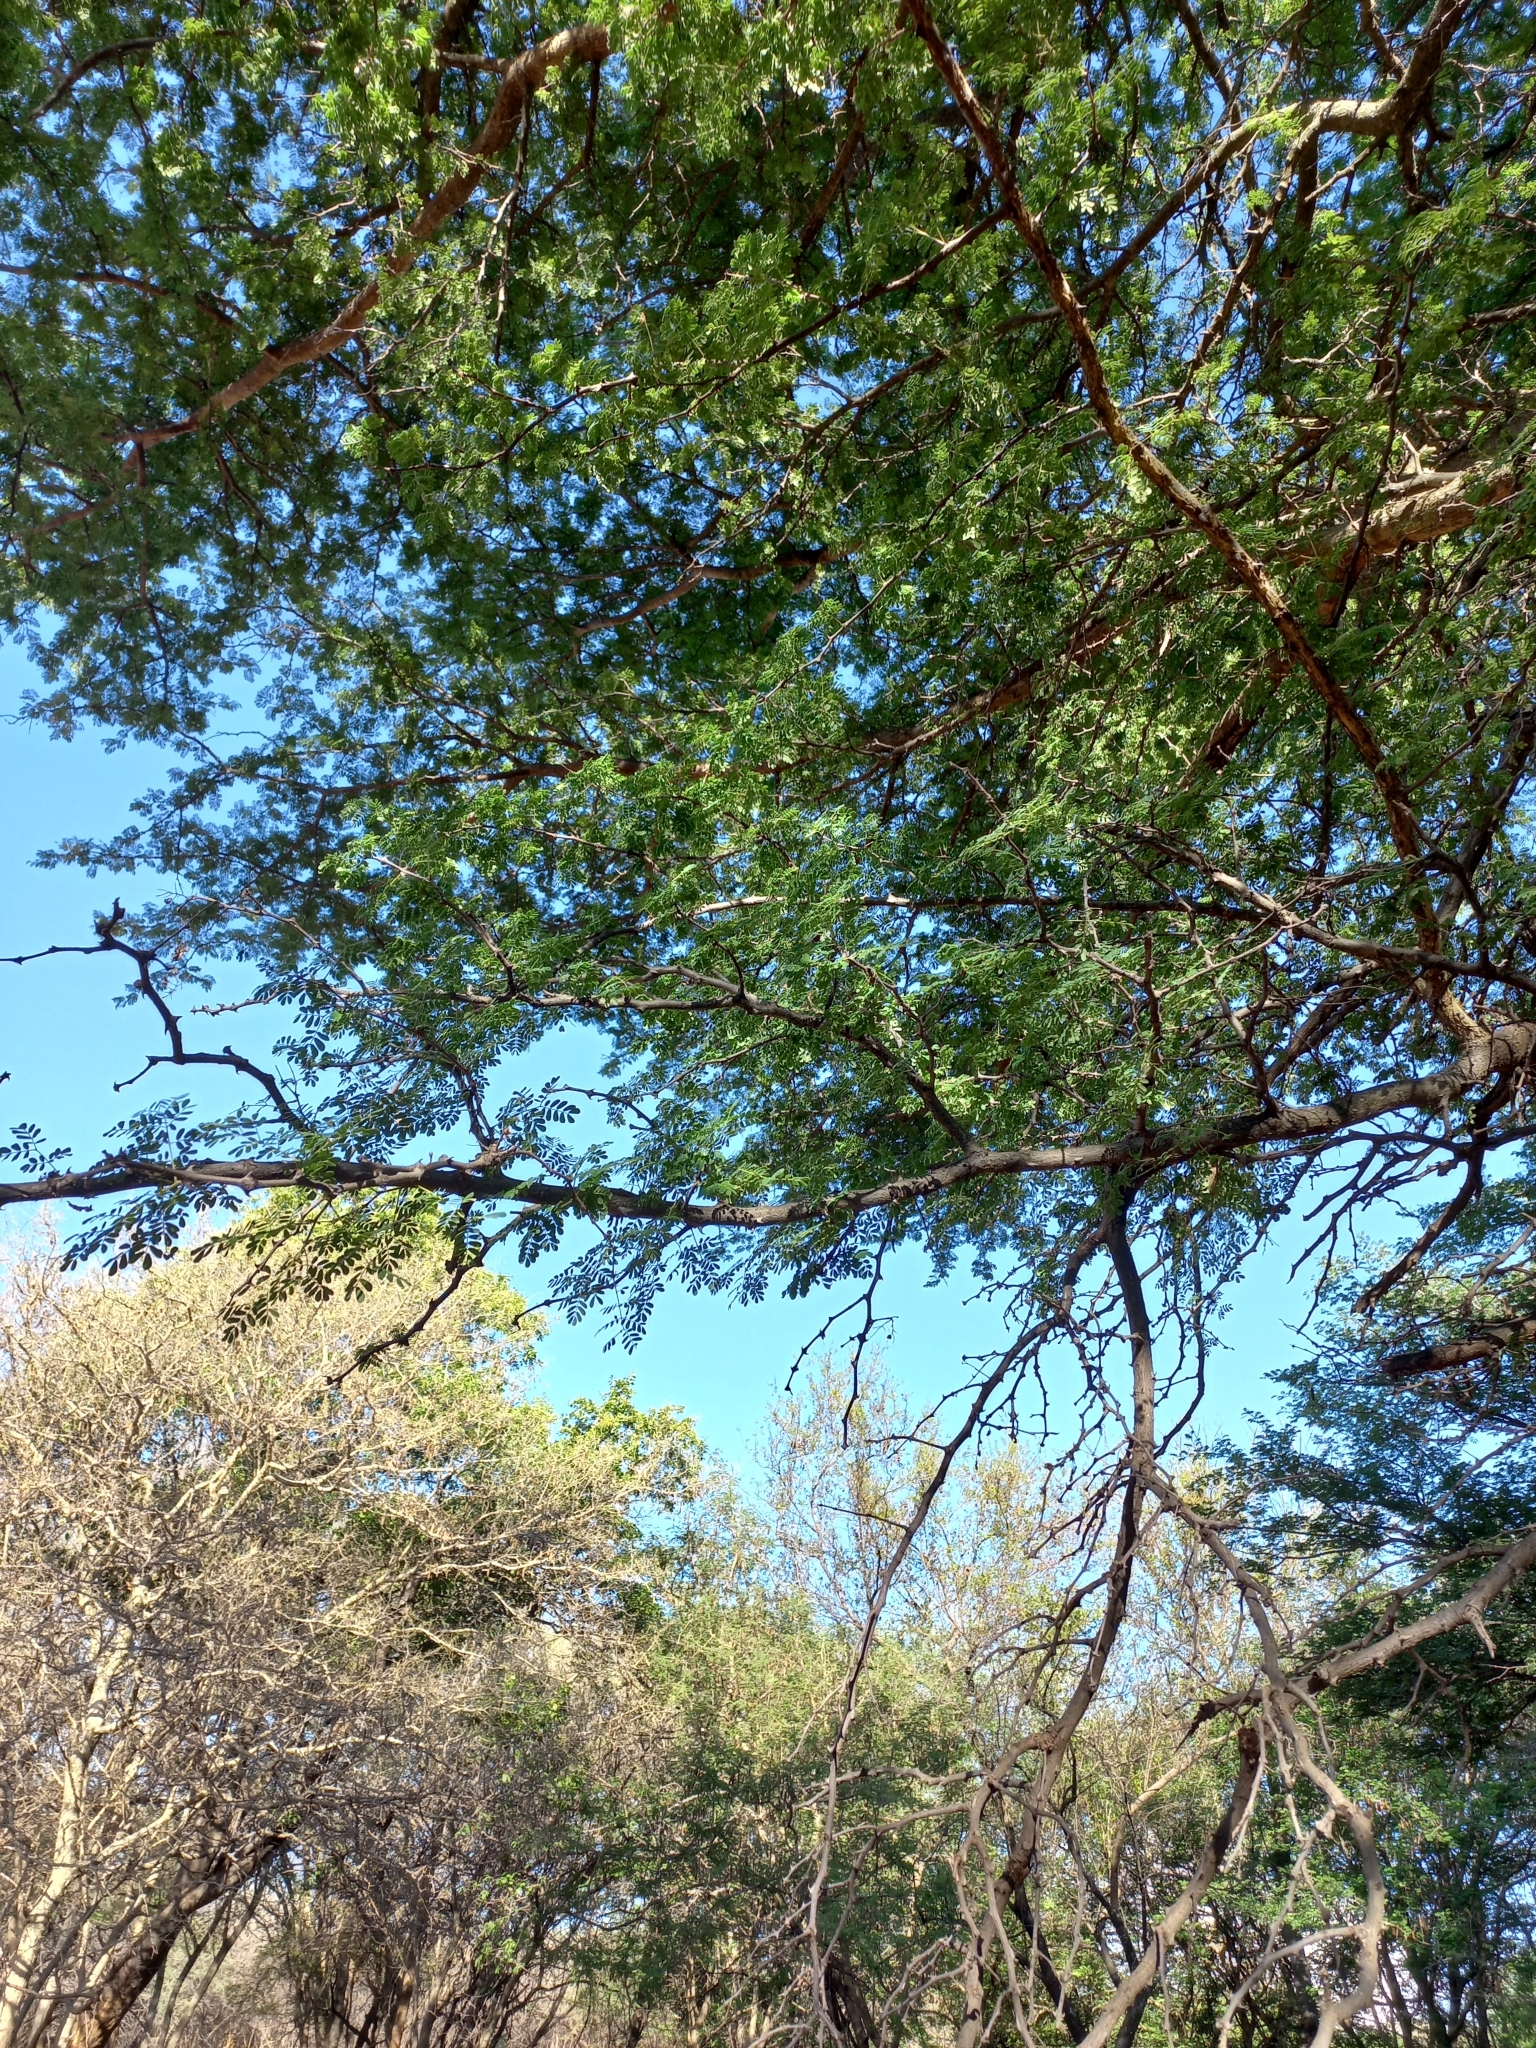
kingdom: Plantae
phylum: Tracheophyta
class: Magnoliopsida
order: Fabales
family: Fabaceae
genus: Senegalia
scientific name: Senegalia burkei
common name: Black monkey thorn
